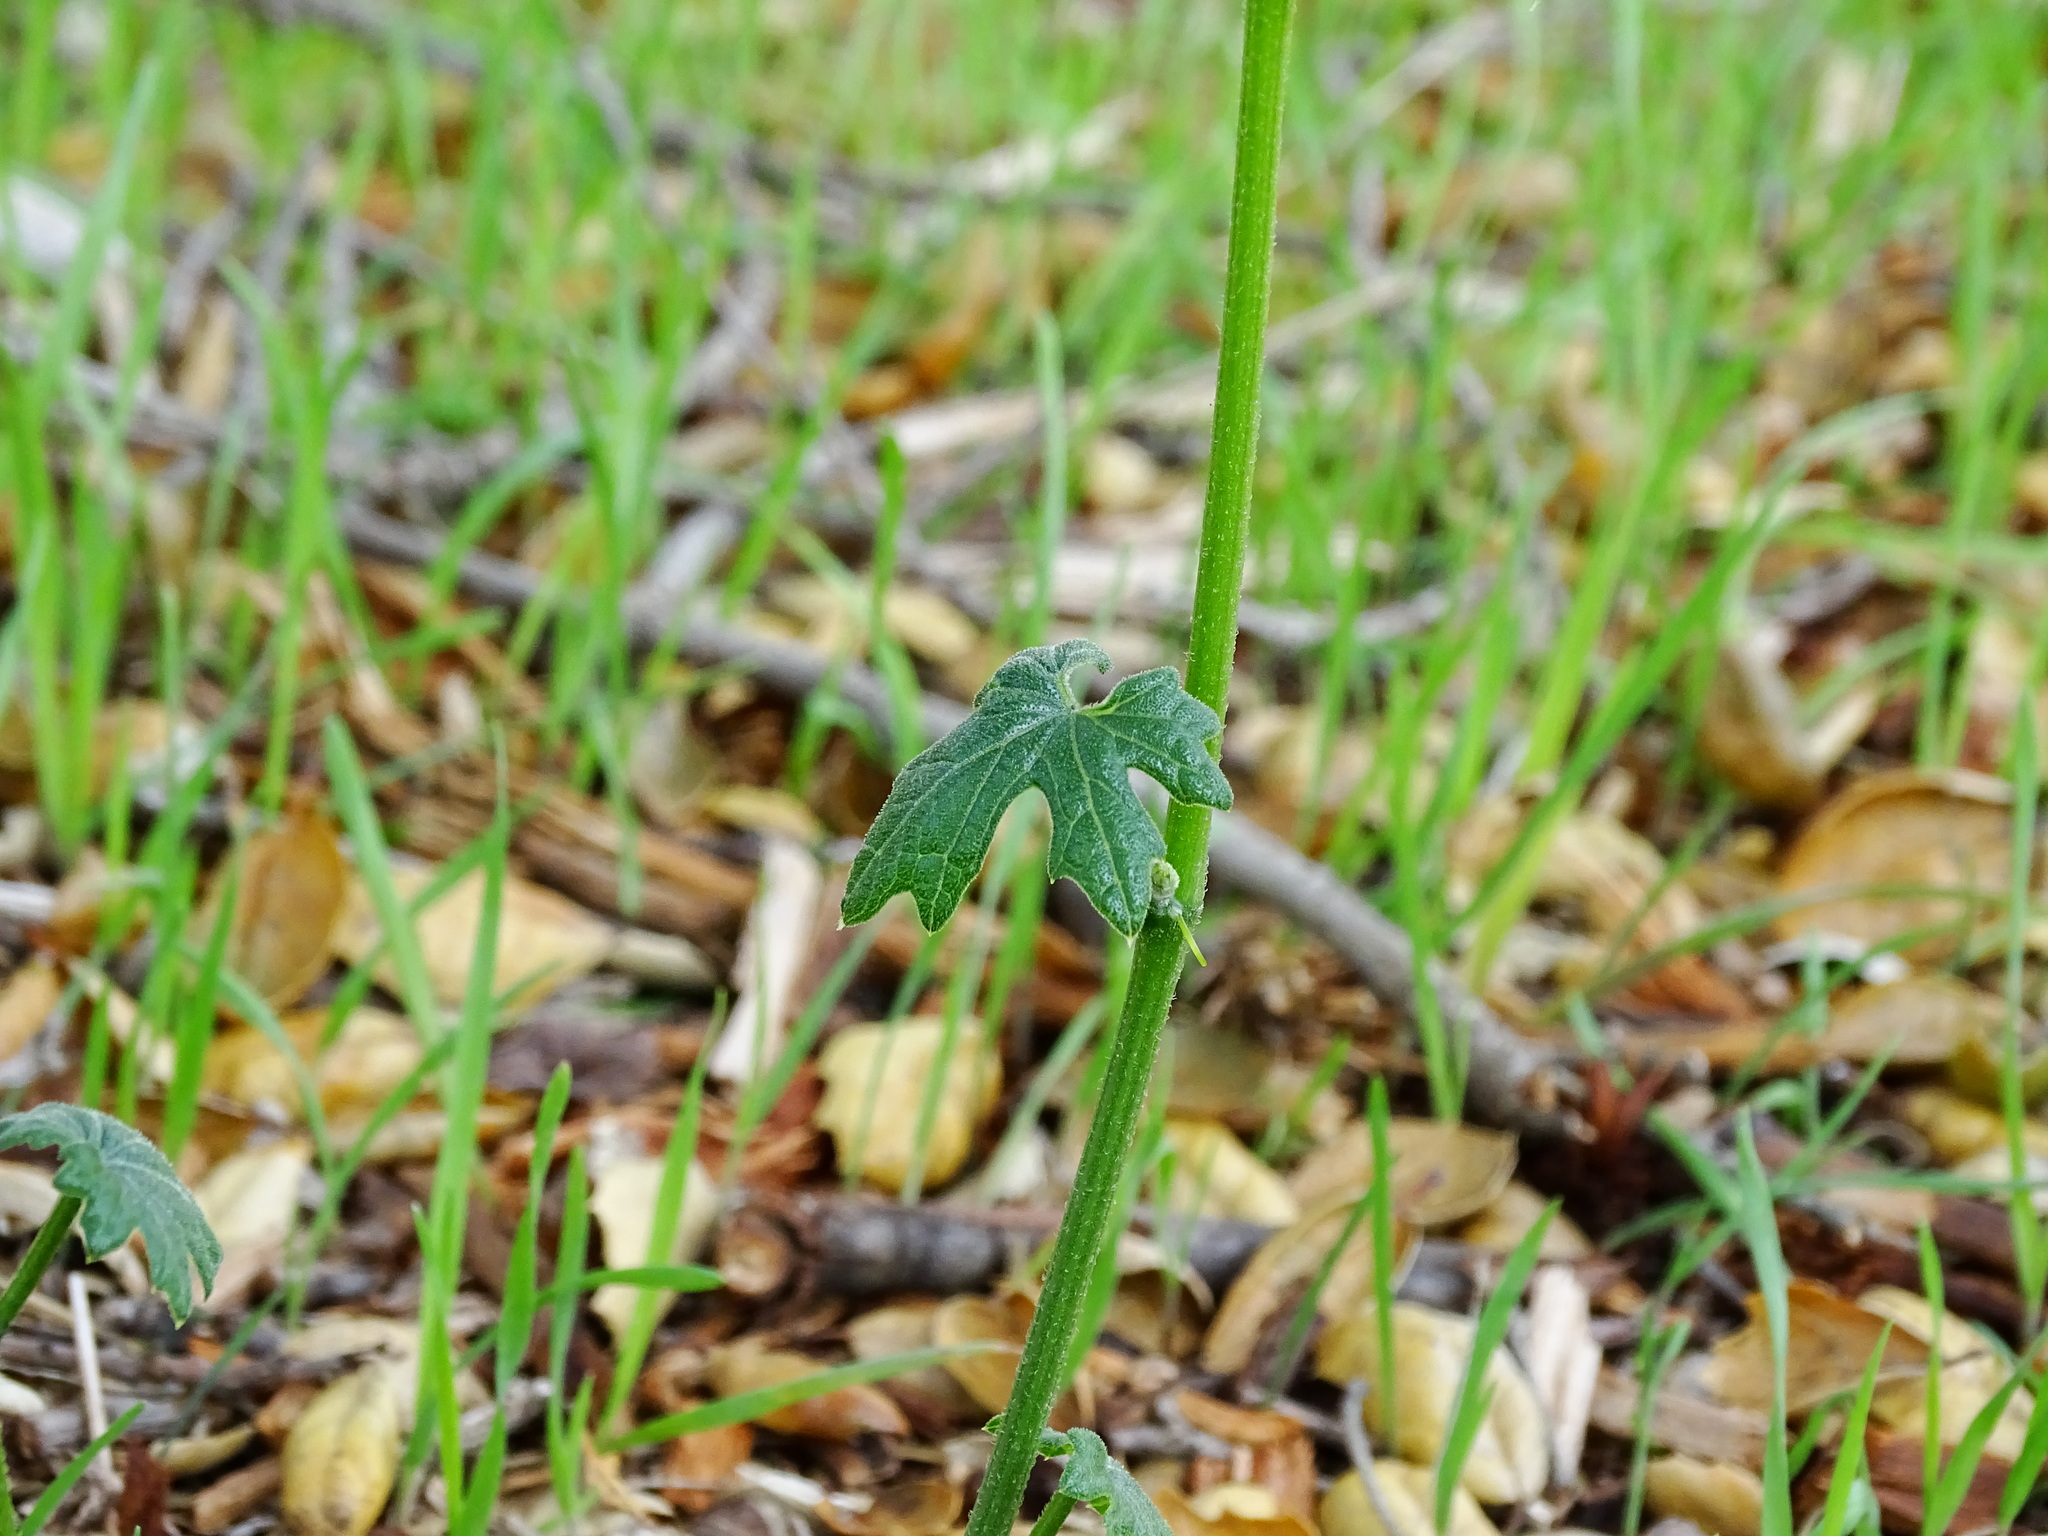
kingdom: Plantae
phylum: Tracheophyta
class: Magnoliopsida
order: Cucurbitales
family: Cucurbitaceae
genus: Marah
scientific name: Marah macrocarpa
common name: Cucamonga manroot
